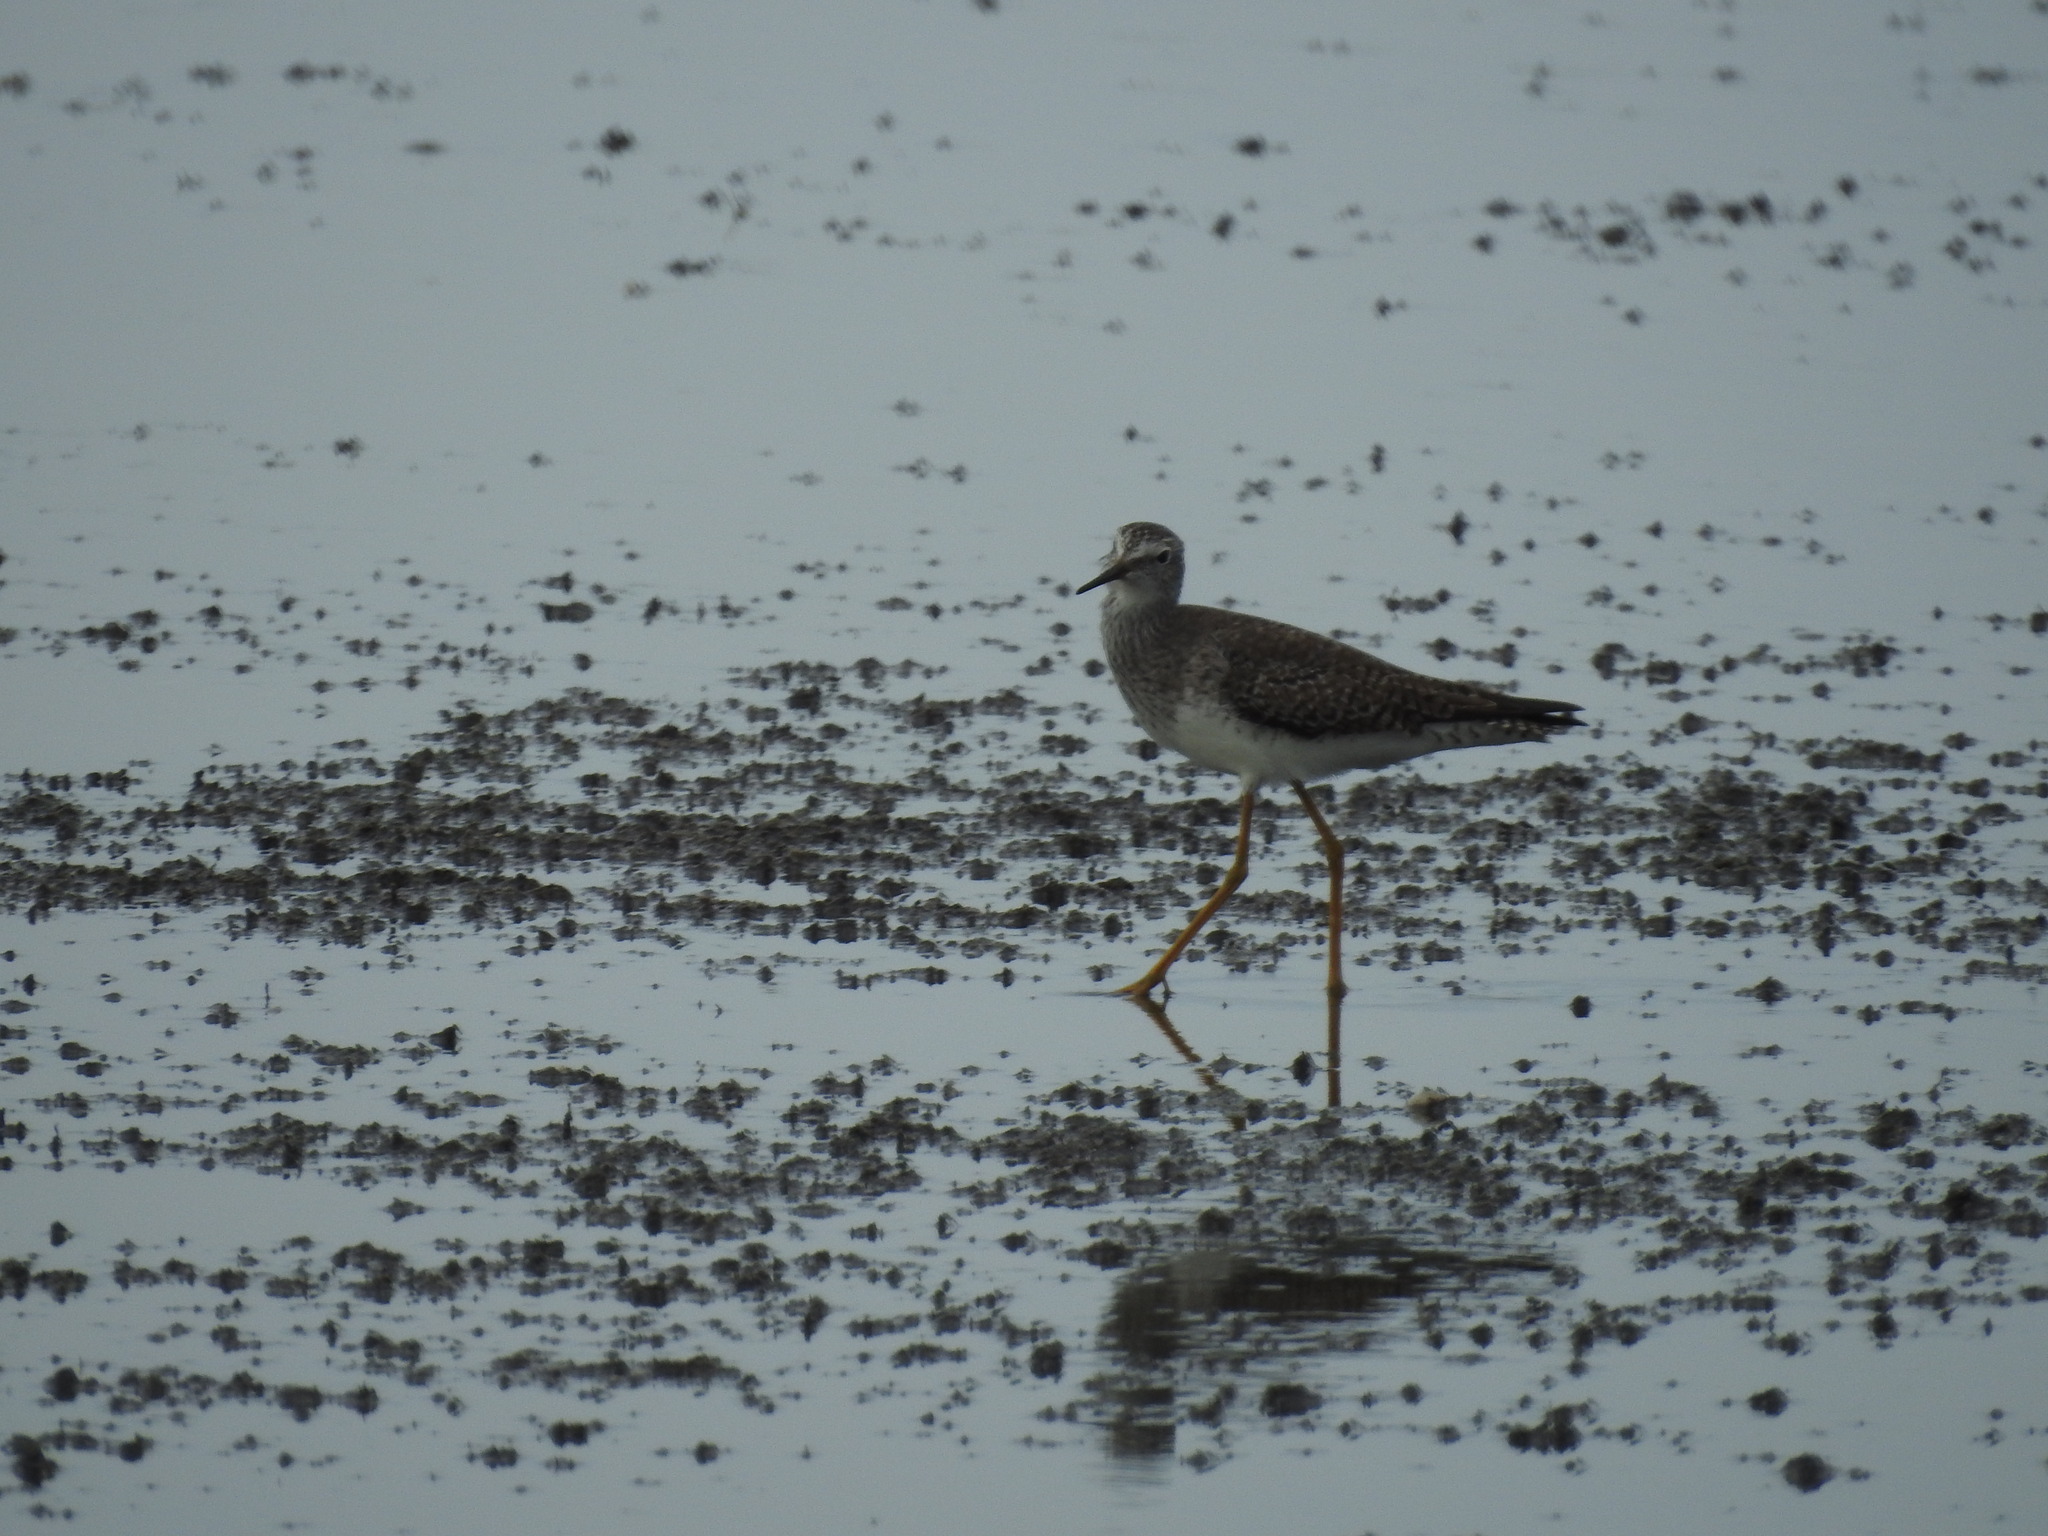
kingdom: Animalia
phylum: Chordata
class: Aves
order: Charadriiformes
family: Scolopacidae
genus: Tringa
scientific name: Tringa flavipes
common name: Lesser yellowlegs
